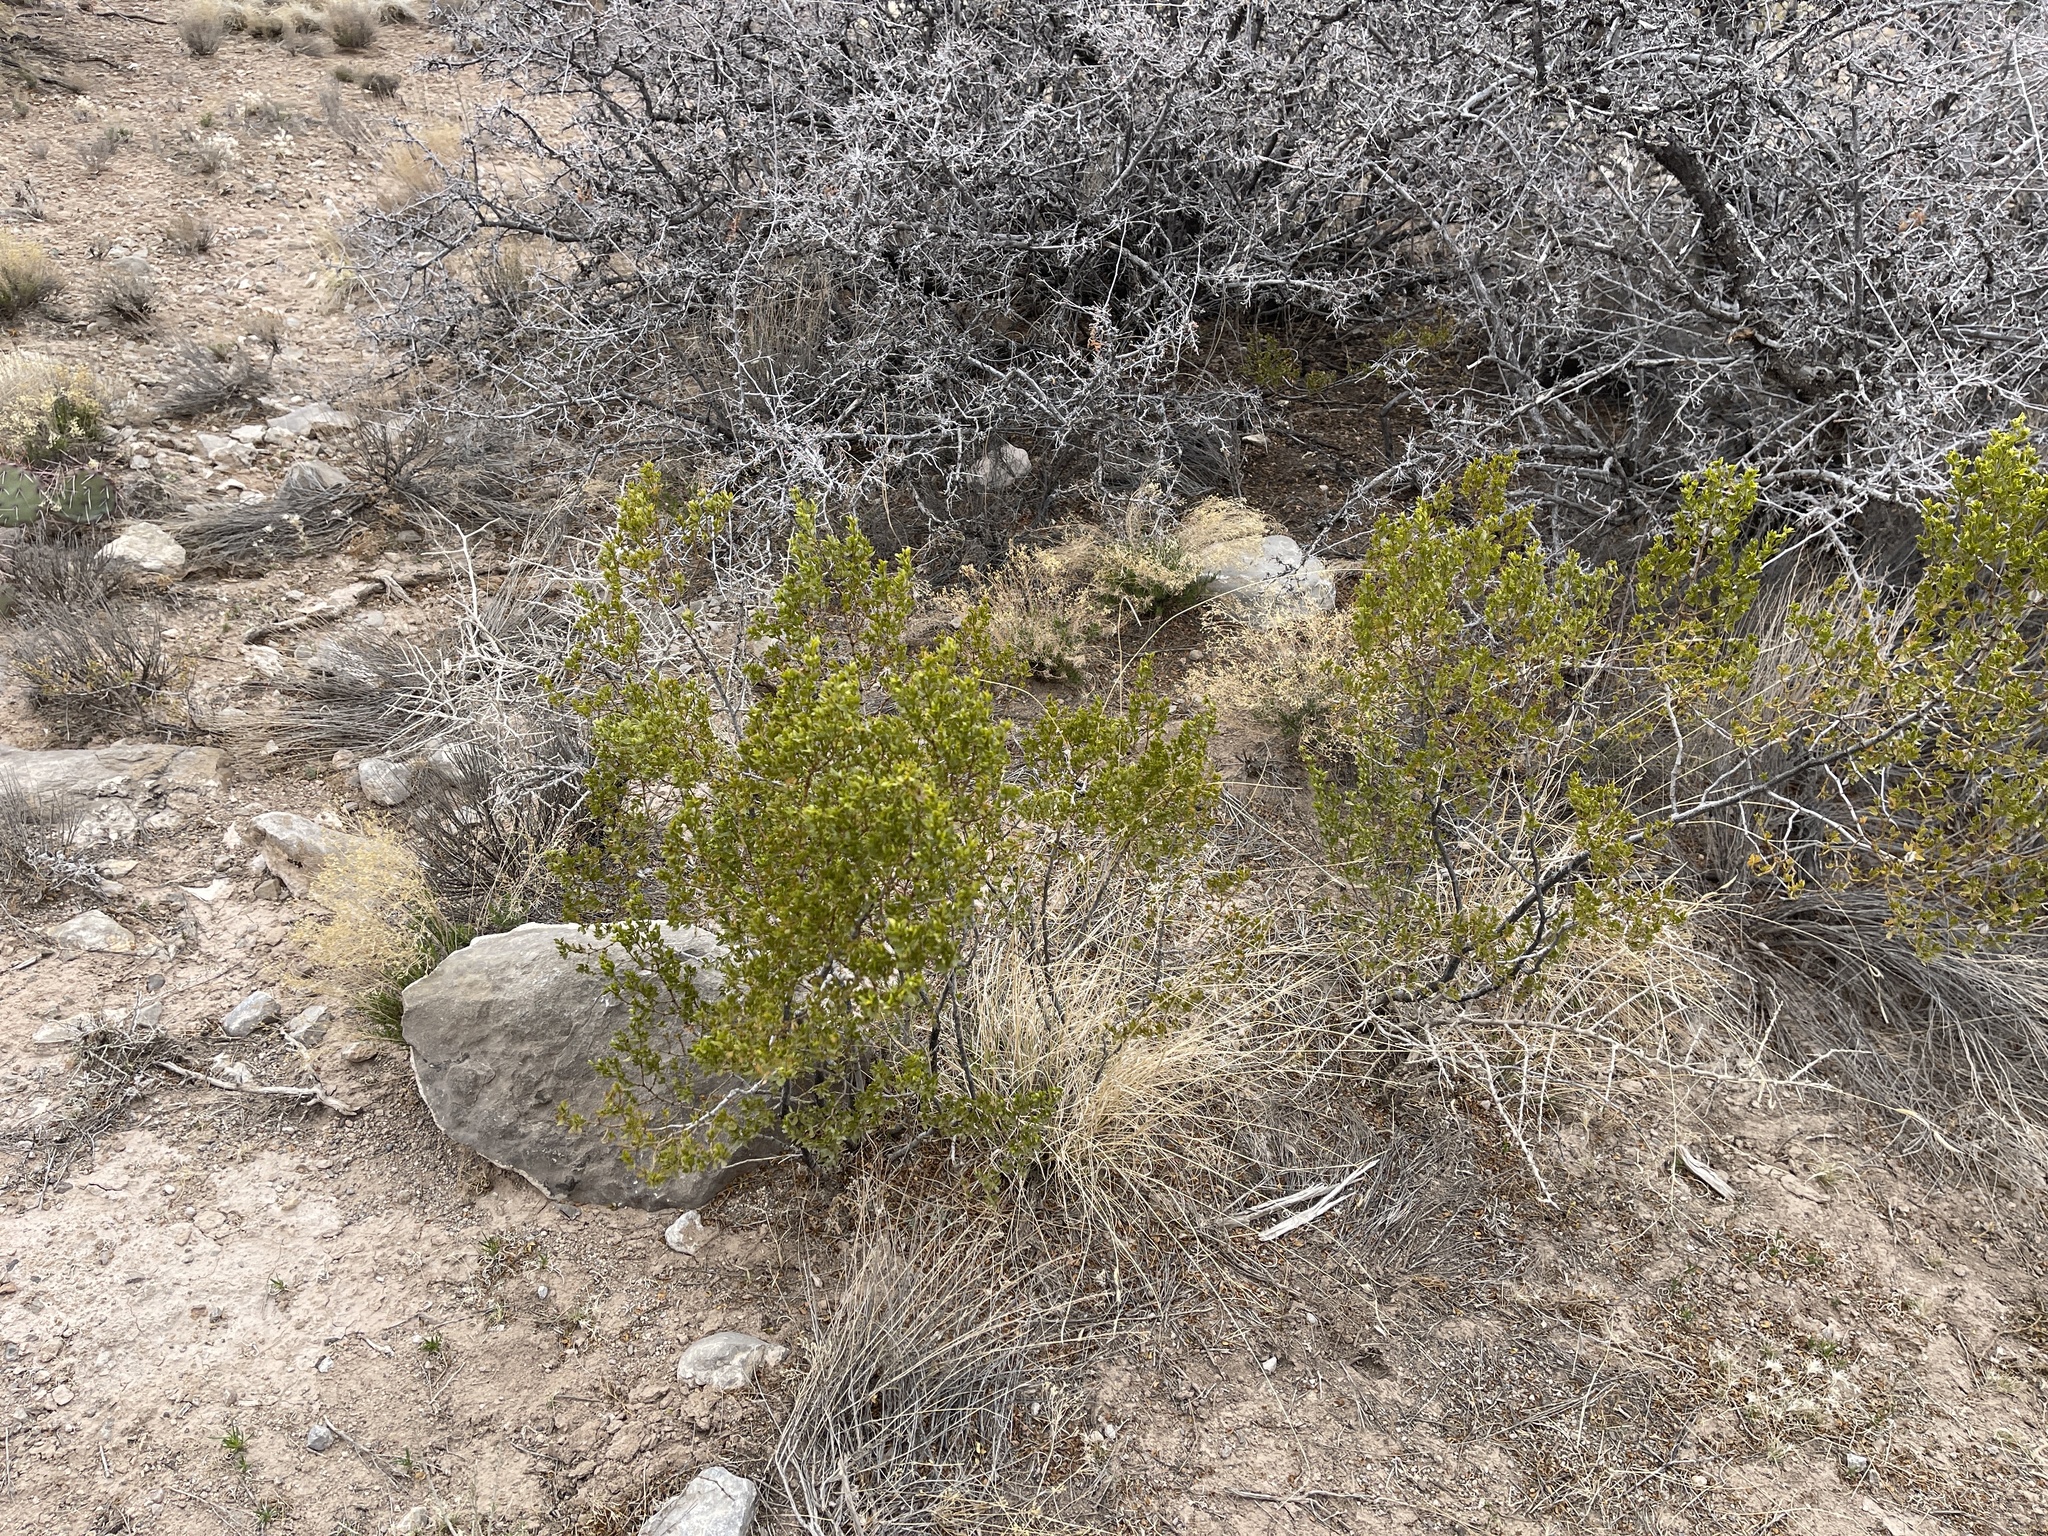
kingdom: Plantae
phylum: Tracheophyta
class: Magnoliopsida
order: Zygophyllales
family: Zygophyllaceae
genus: Larrea
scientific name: Larrea tridentata
